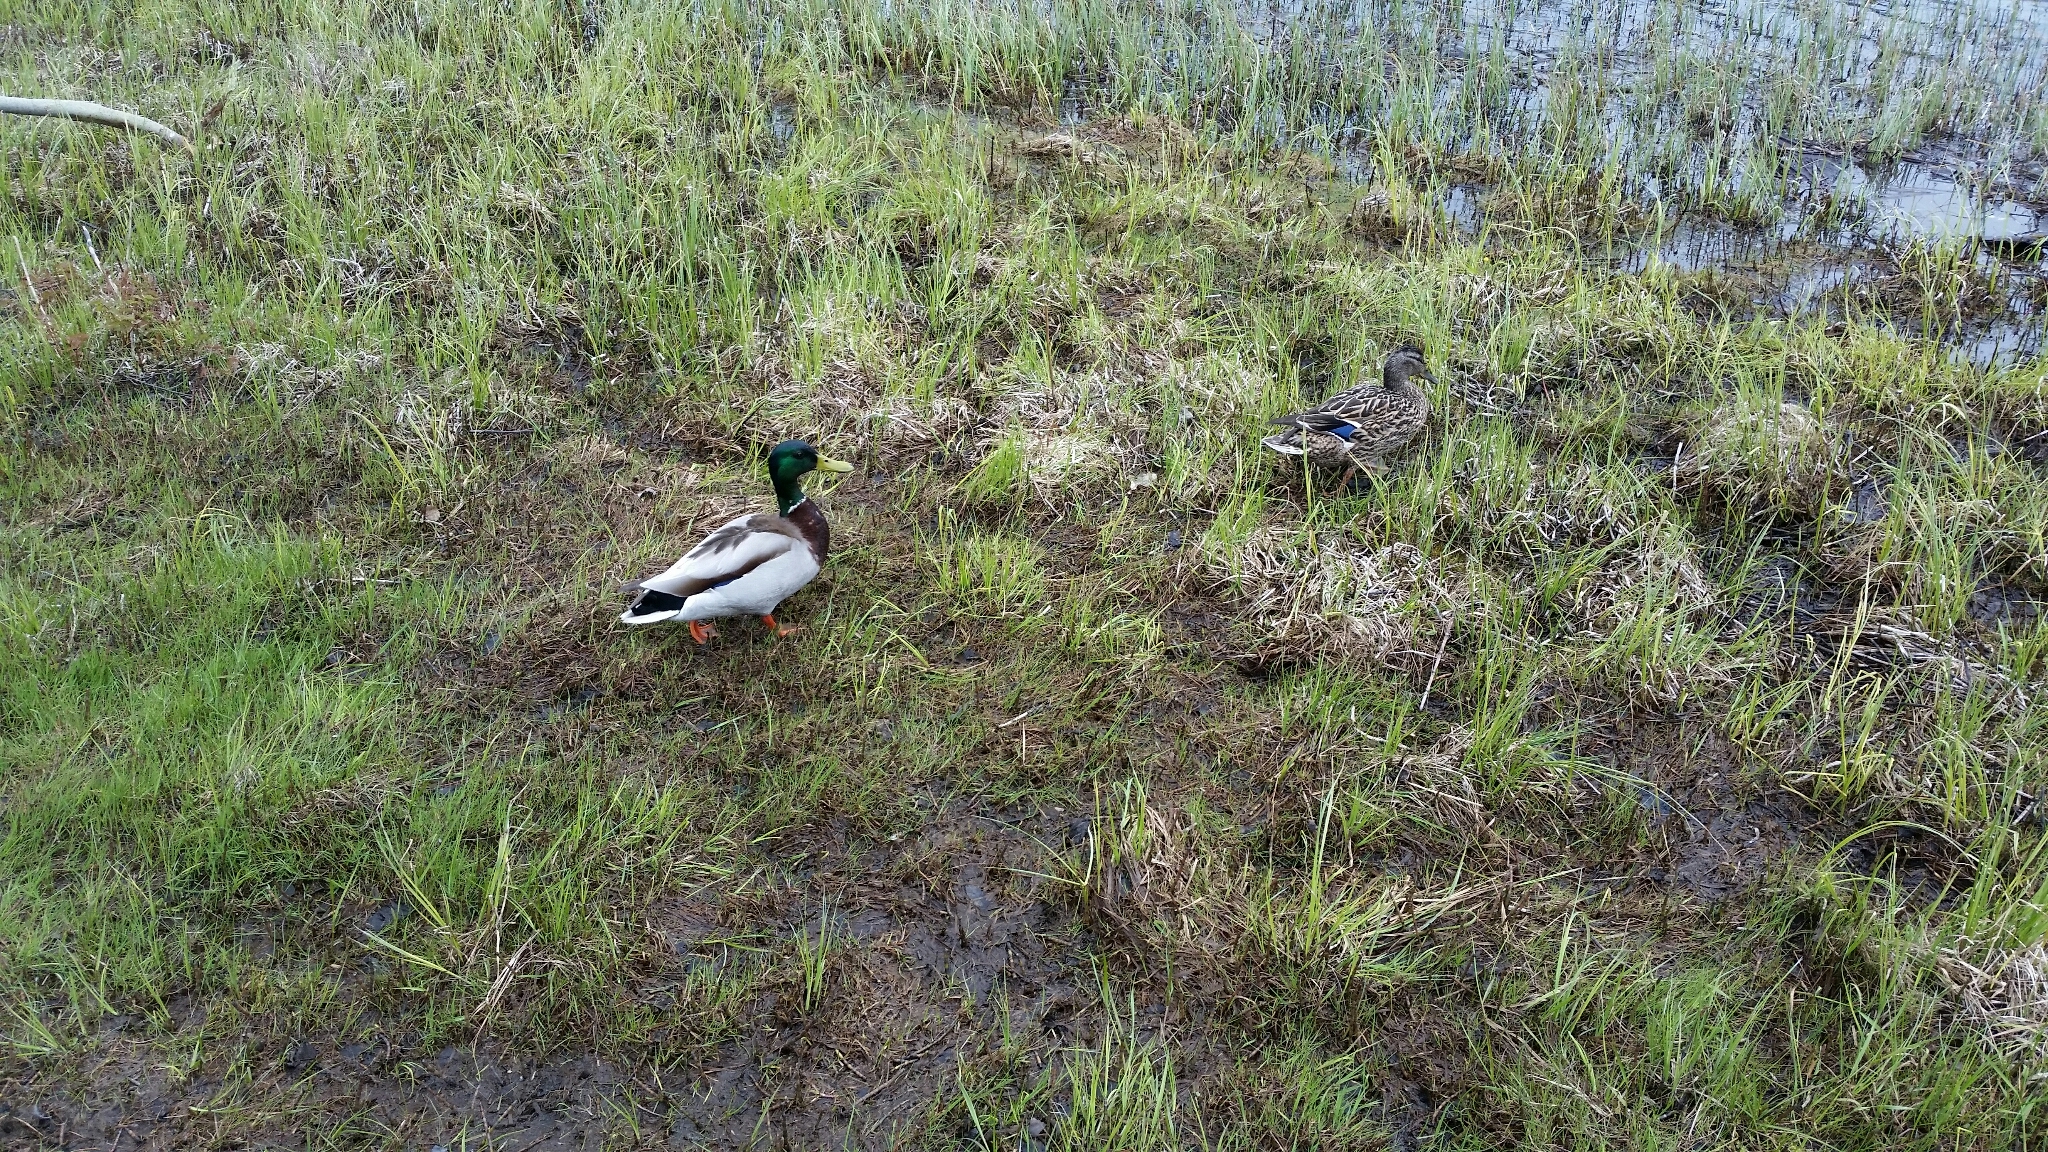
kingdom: Animalia
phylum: Chordata
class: Aves
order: Anseriformes
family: Anatidae
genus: Anas
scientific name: Anas platyrhynchos
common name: Mallard
